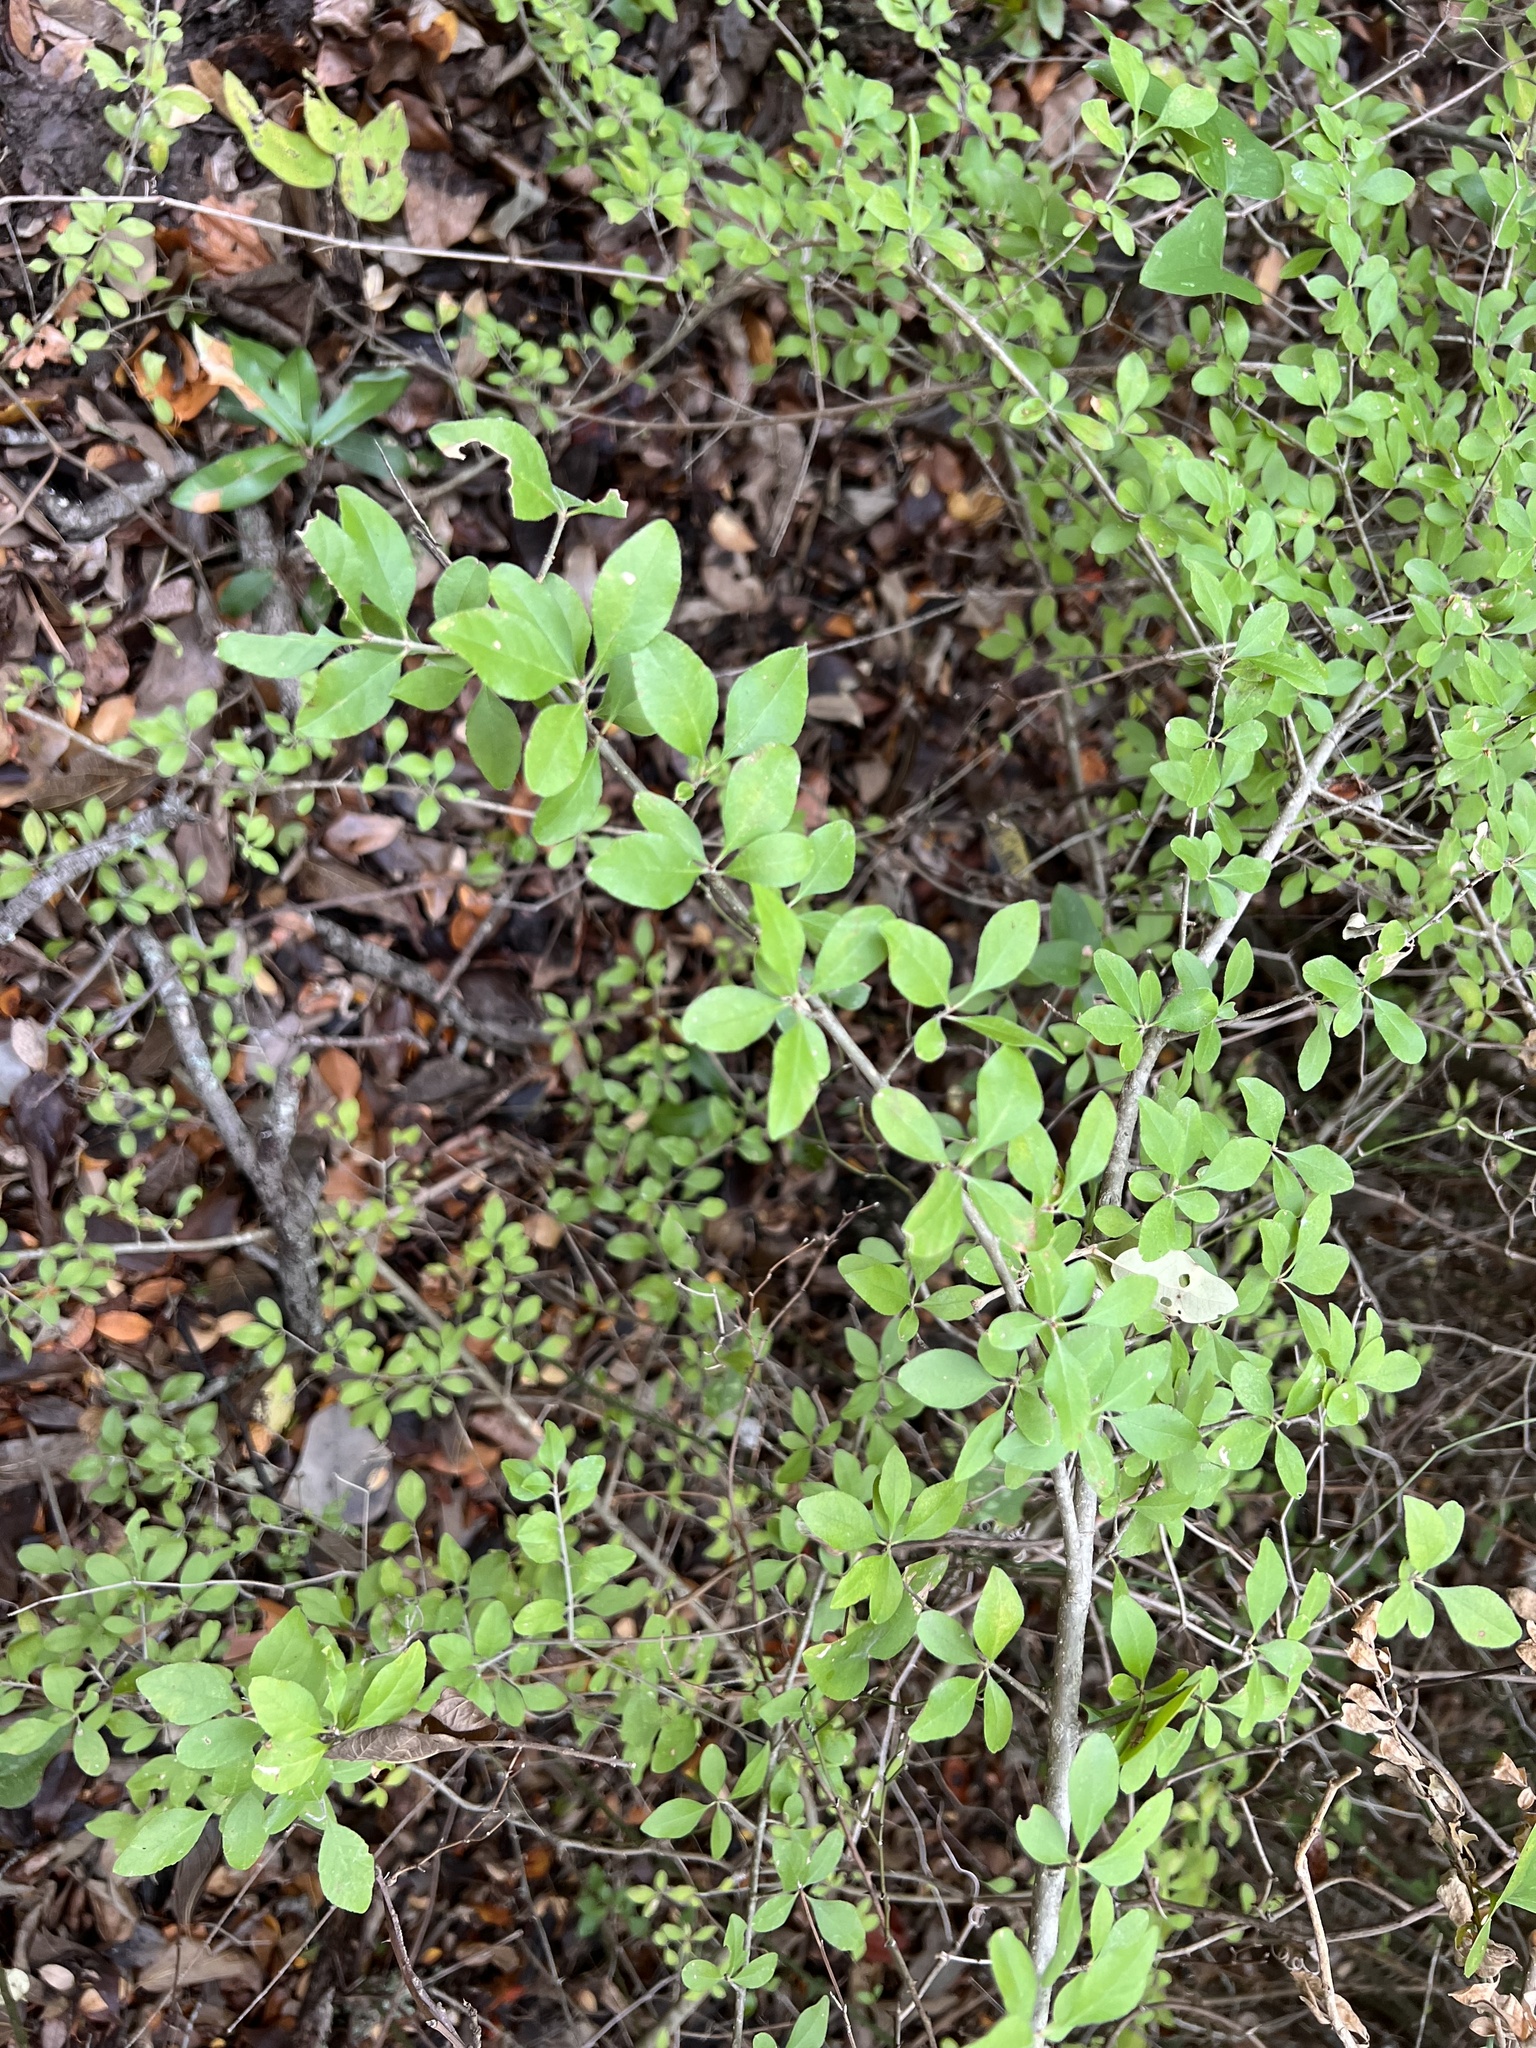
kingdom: Plantae
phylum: Tracheophyta
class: Magnoliopsida
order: Lamiales
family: Oleaceae
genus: Forestiera
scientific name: Forestiera pubescens
